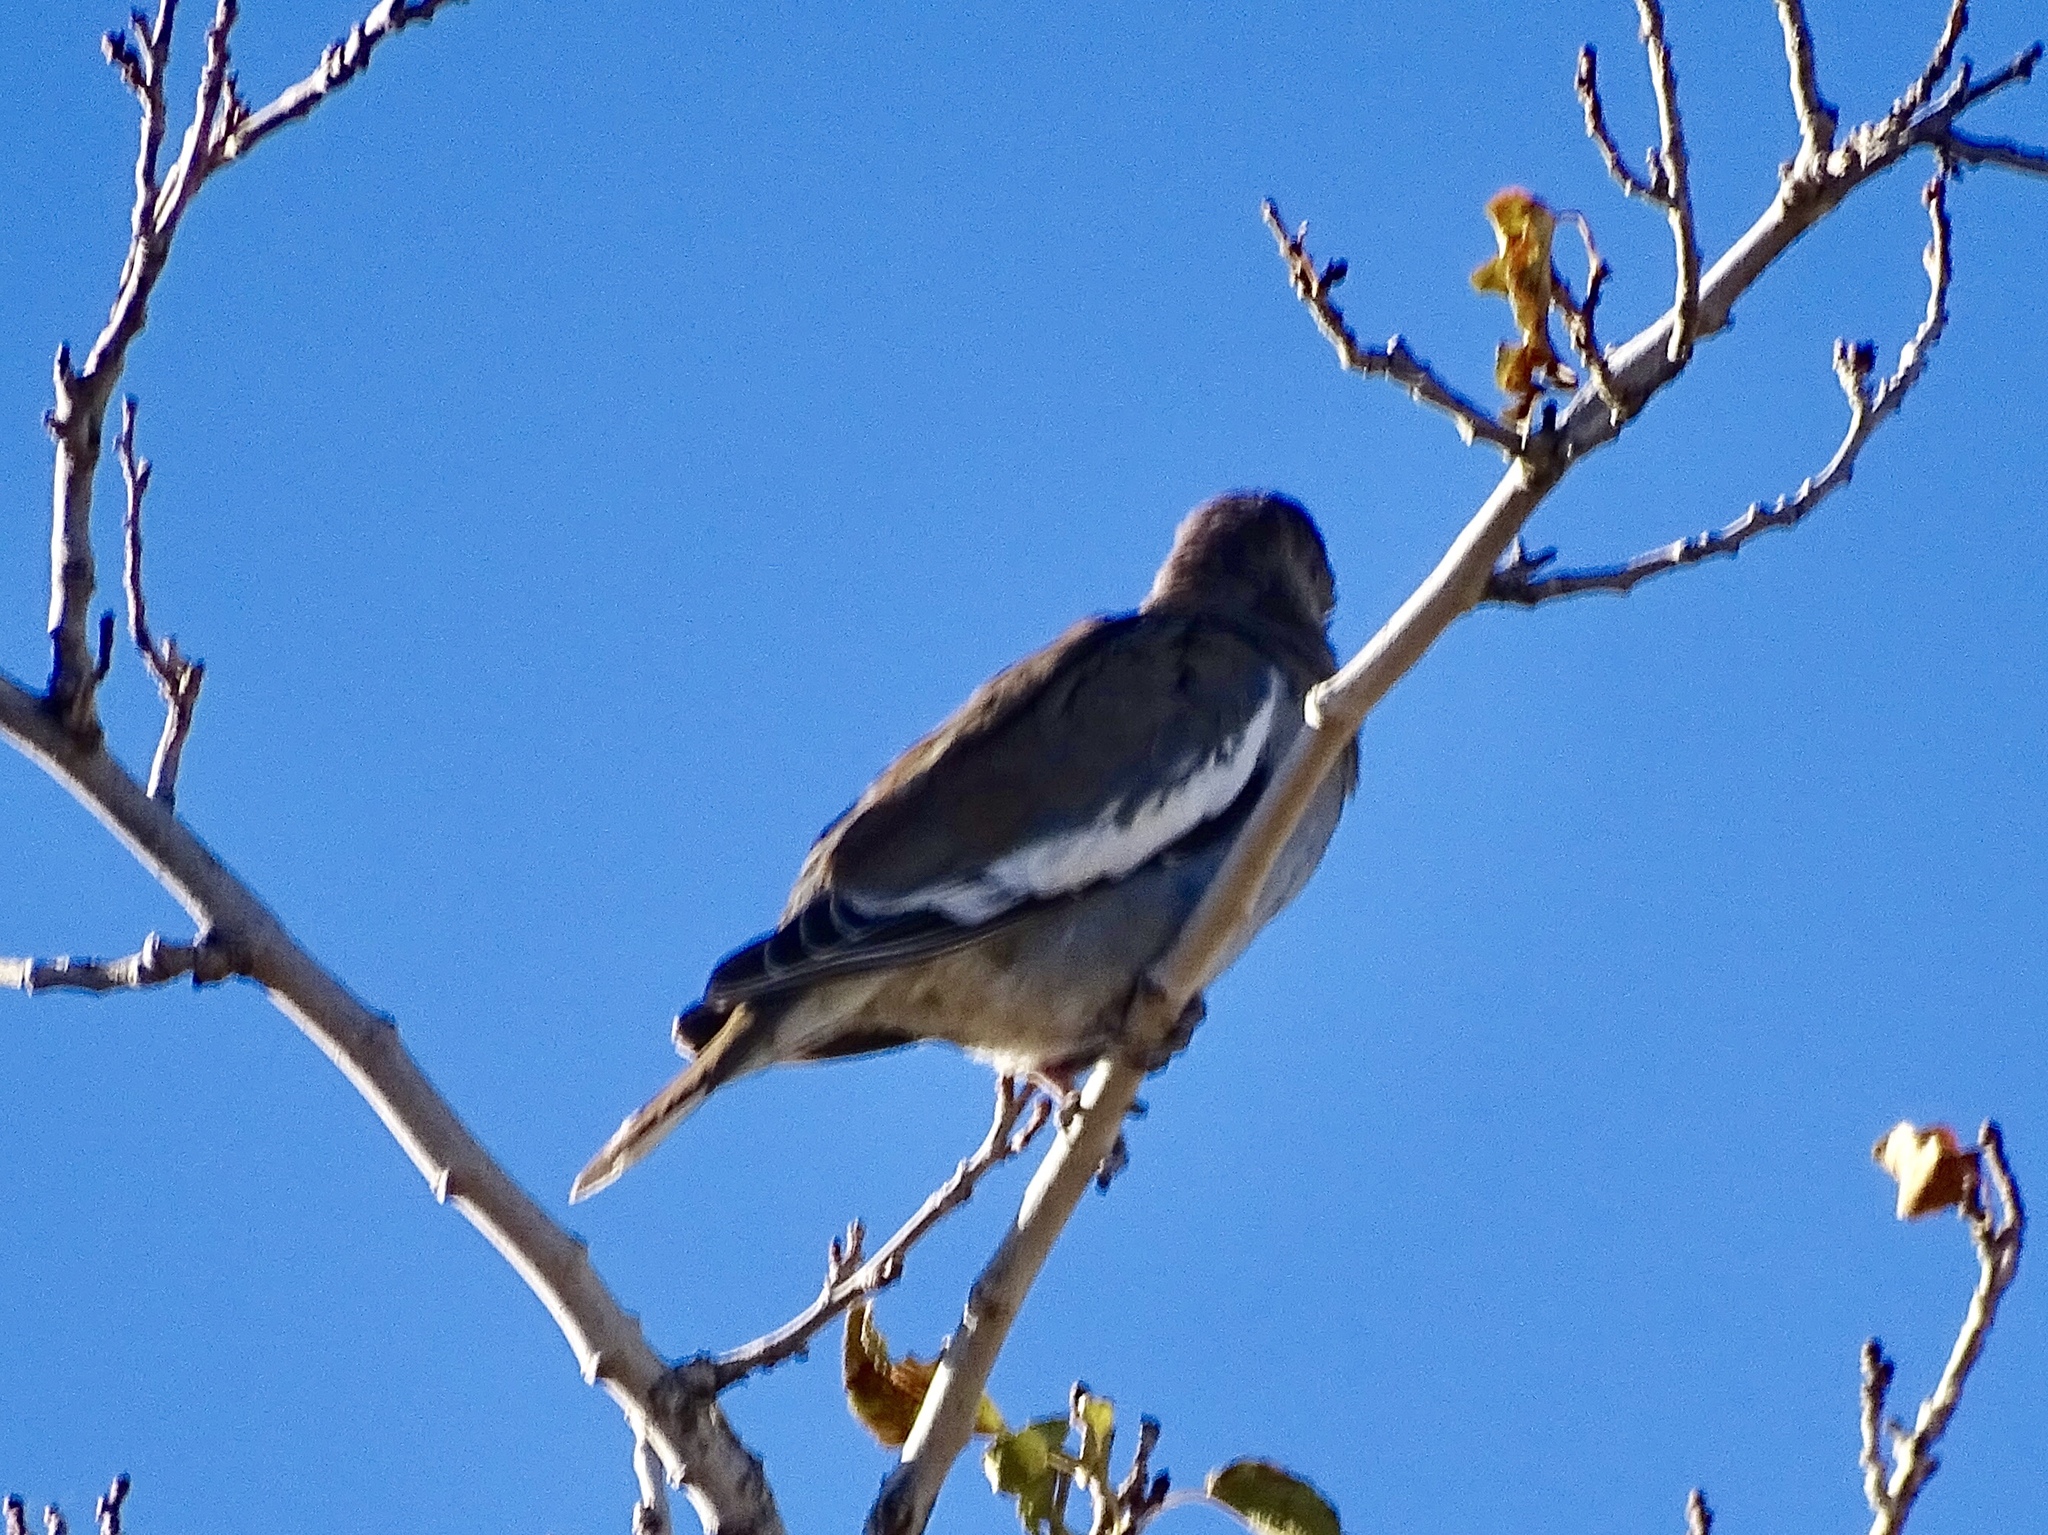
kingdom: Animalia
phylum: Chordata
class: Aves
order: Columbiformes
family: Columbidae
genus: Zenaida
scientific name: Zenaida asiatica
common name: White-winged dove
